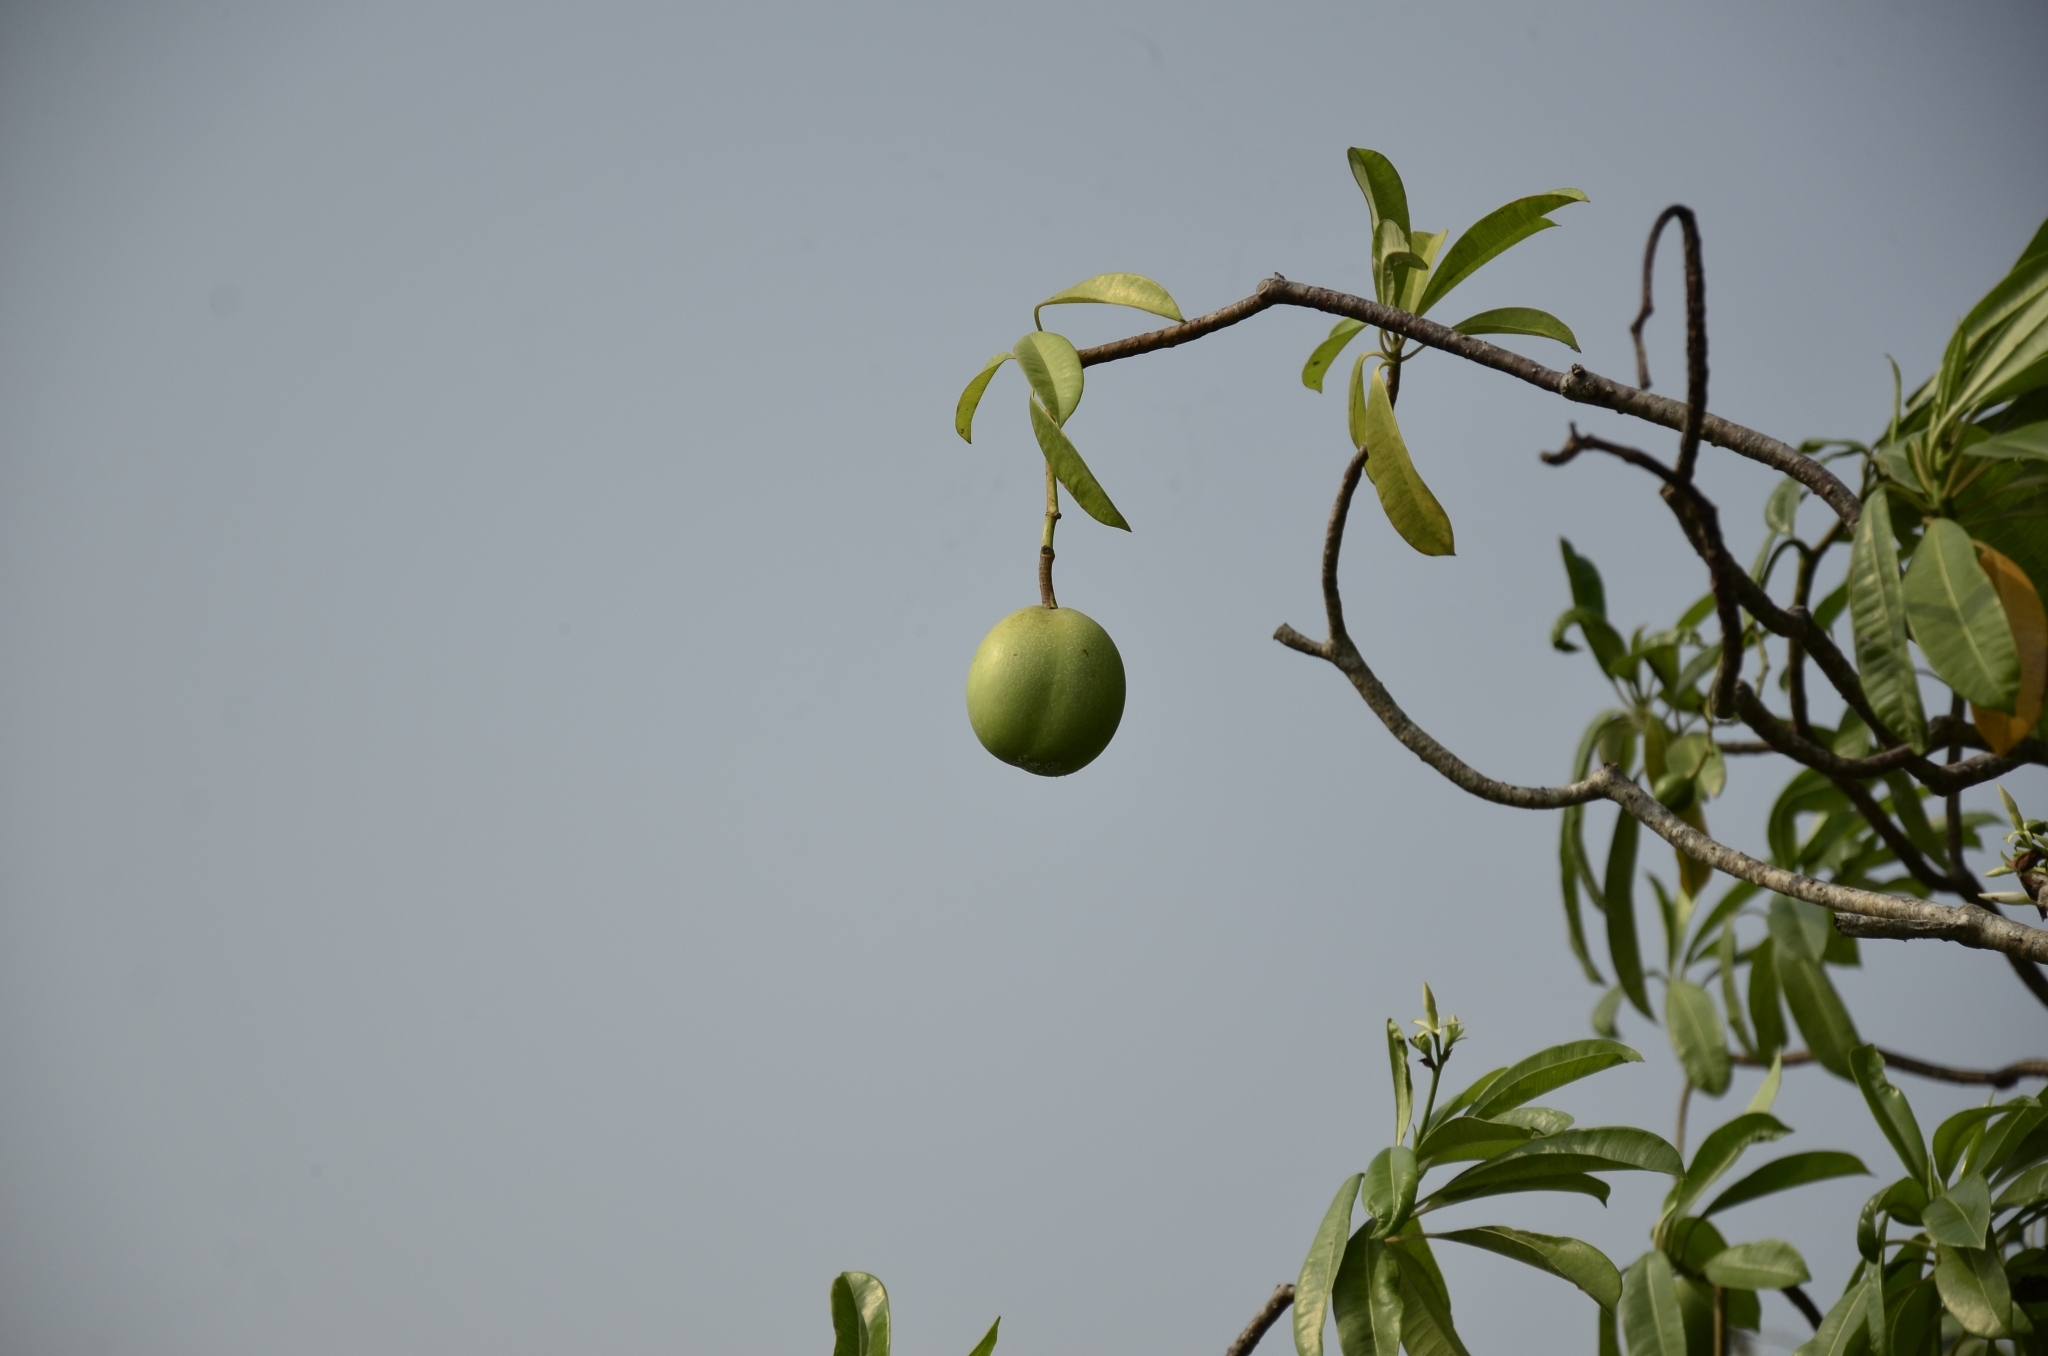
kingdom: Plantae
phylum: Tracheophyta
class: Magnoliopsida
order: Gentianales
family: Apocynaceae
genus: Cerbera
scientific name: Cerbera odollam
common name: Pong-pong
